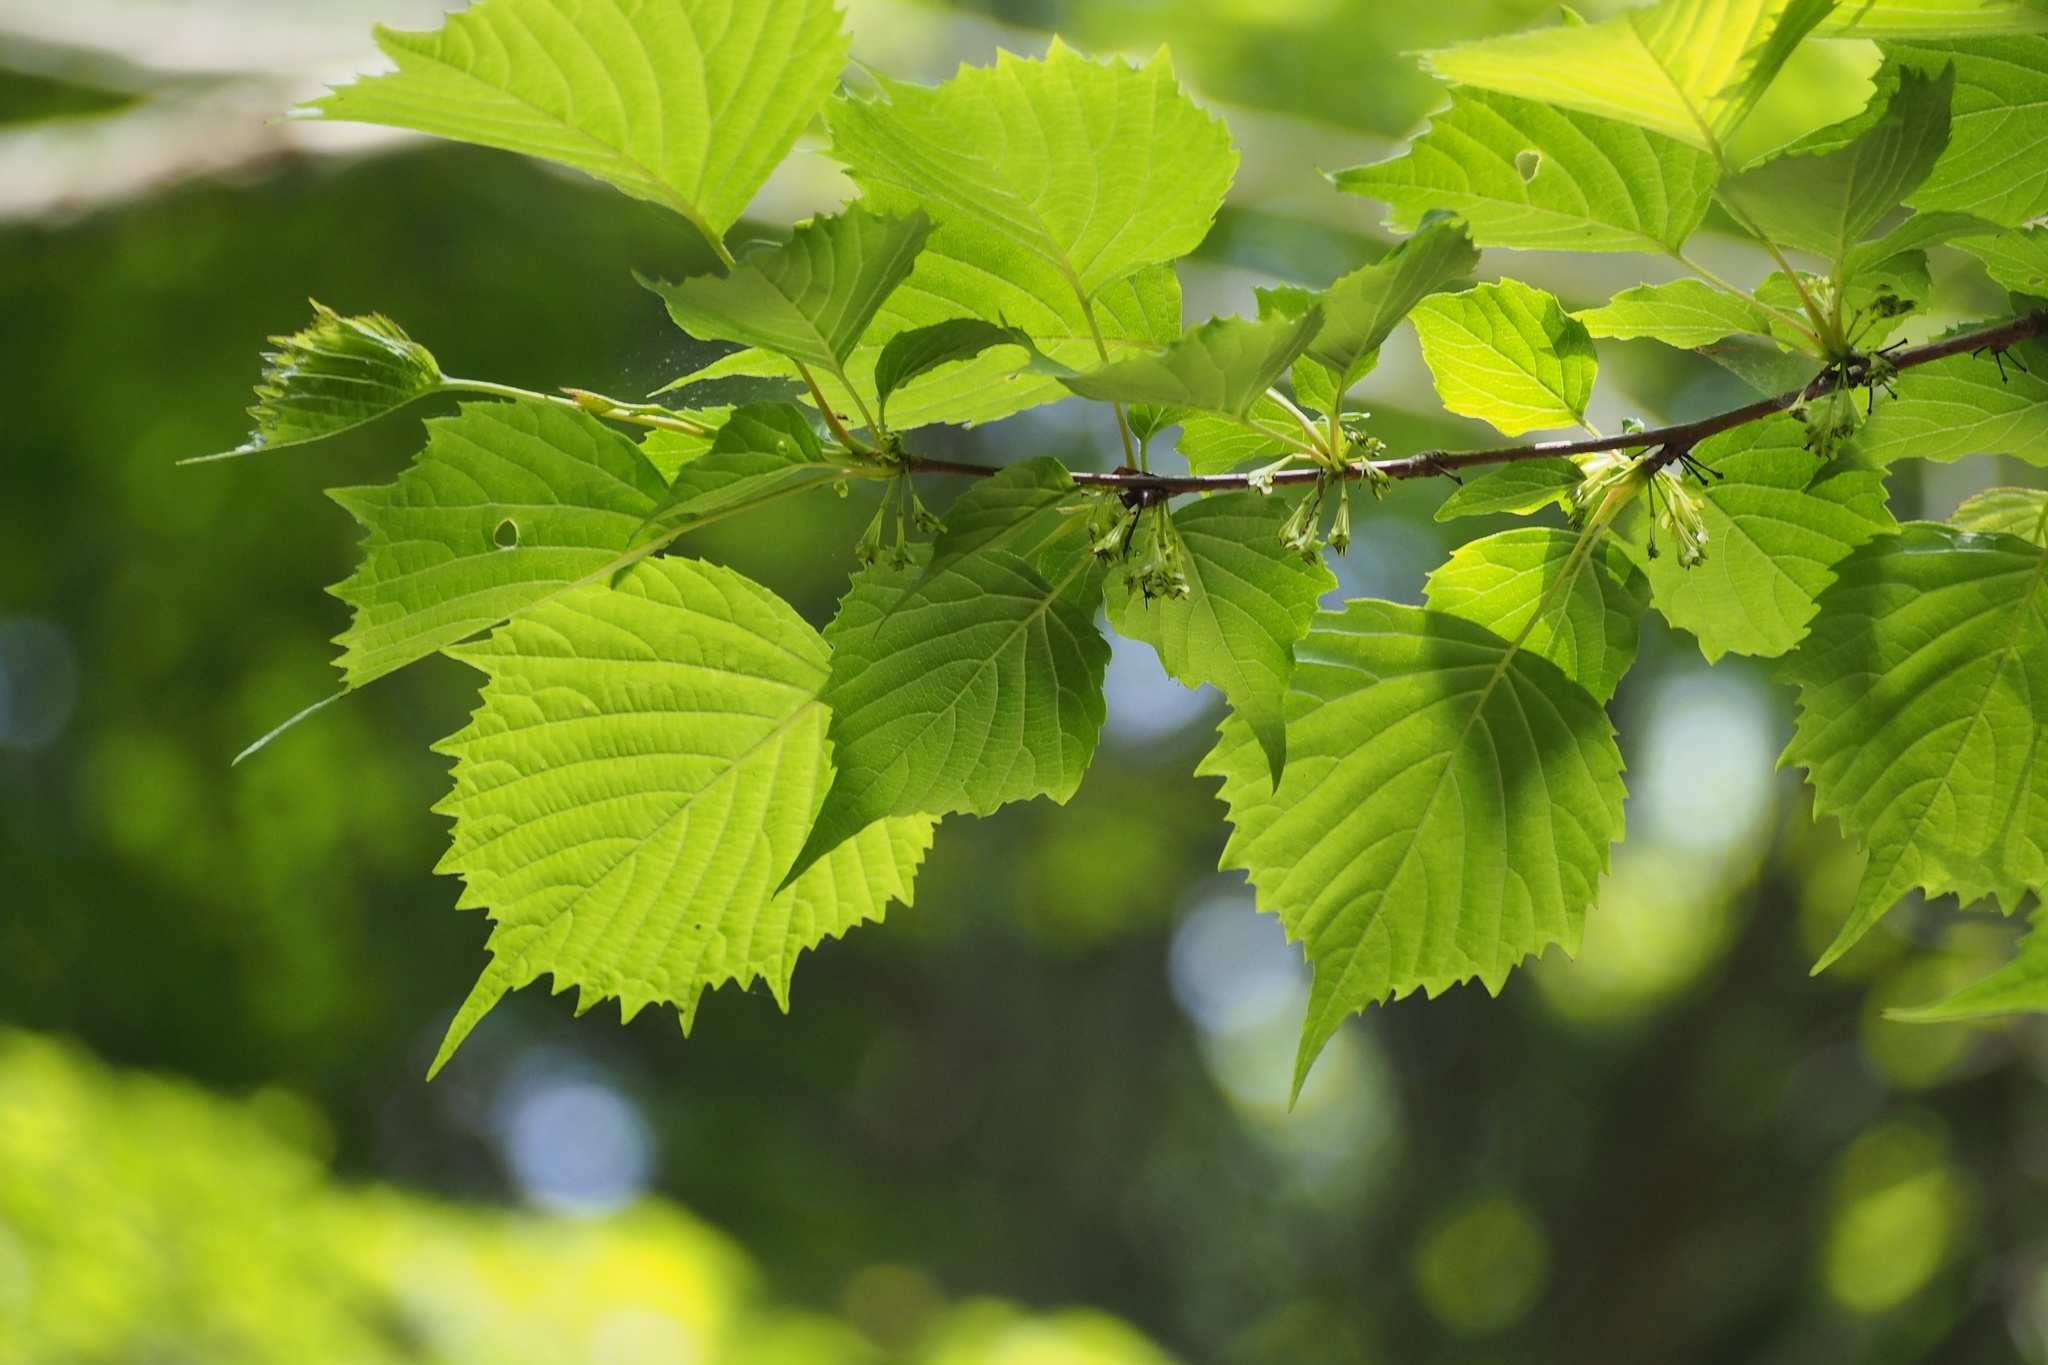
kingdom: Plantae
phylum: Tracheophyta
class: Magnoliopsida
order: Ranunculales
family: Eupteleaceae
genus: Euptelea
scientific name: Euptelea polyandra
